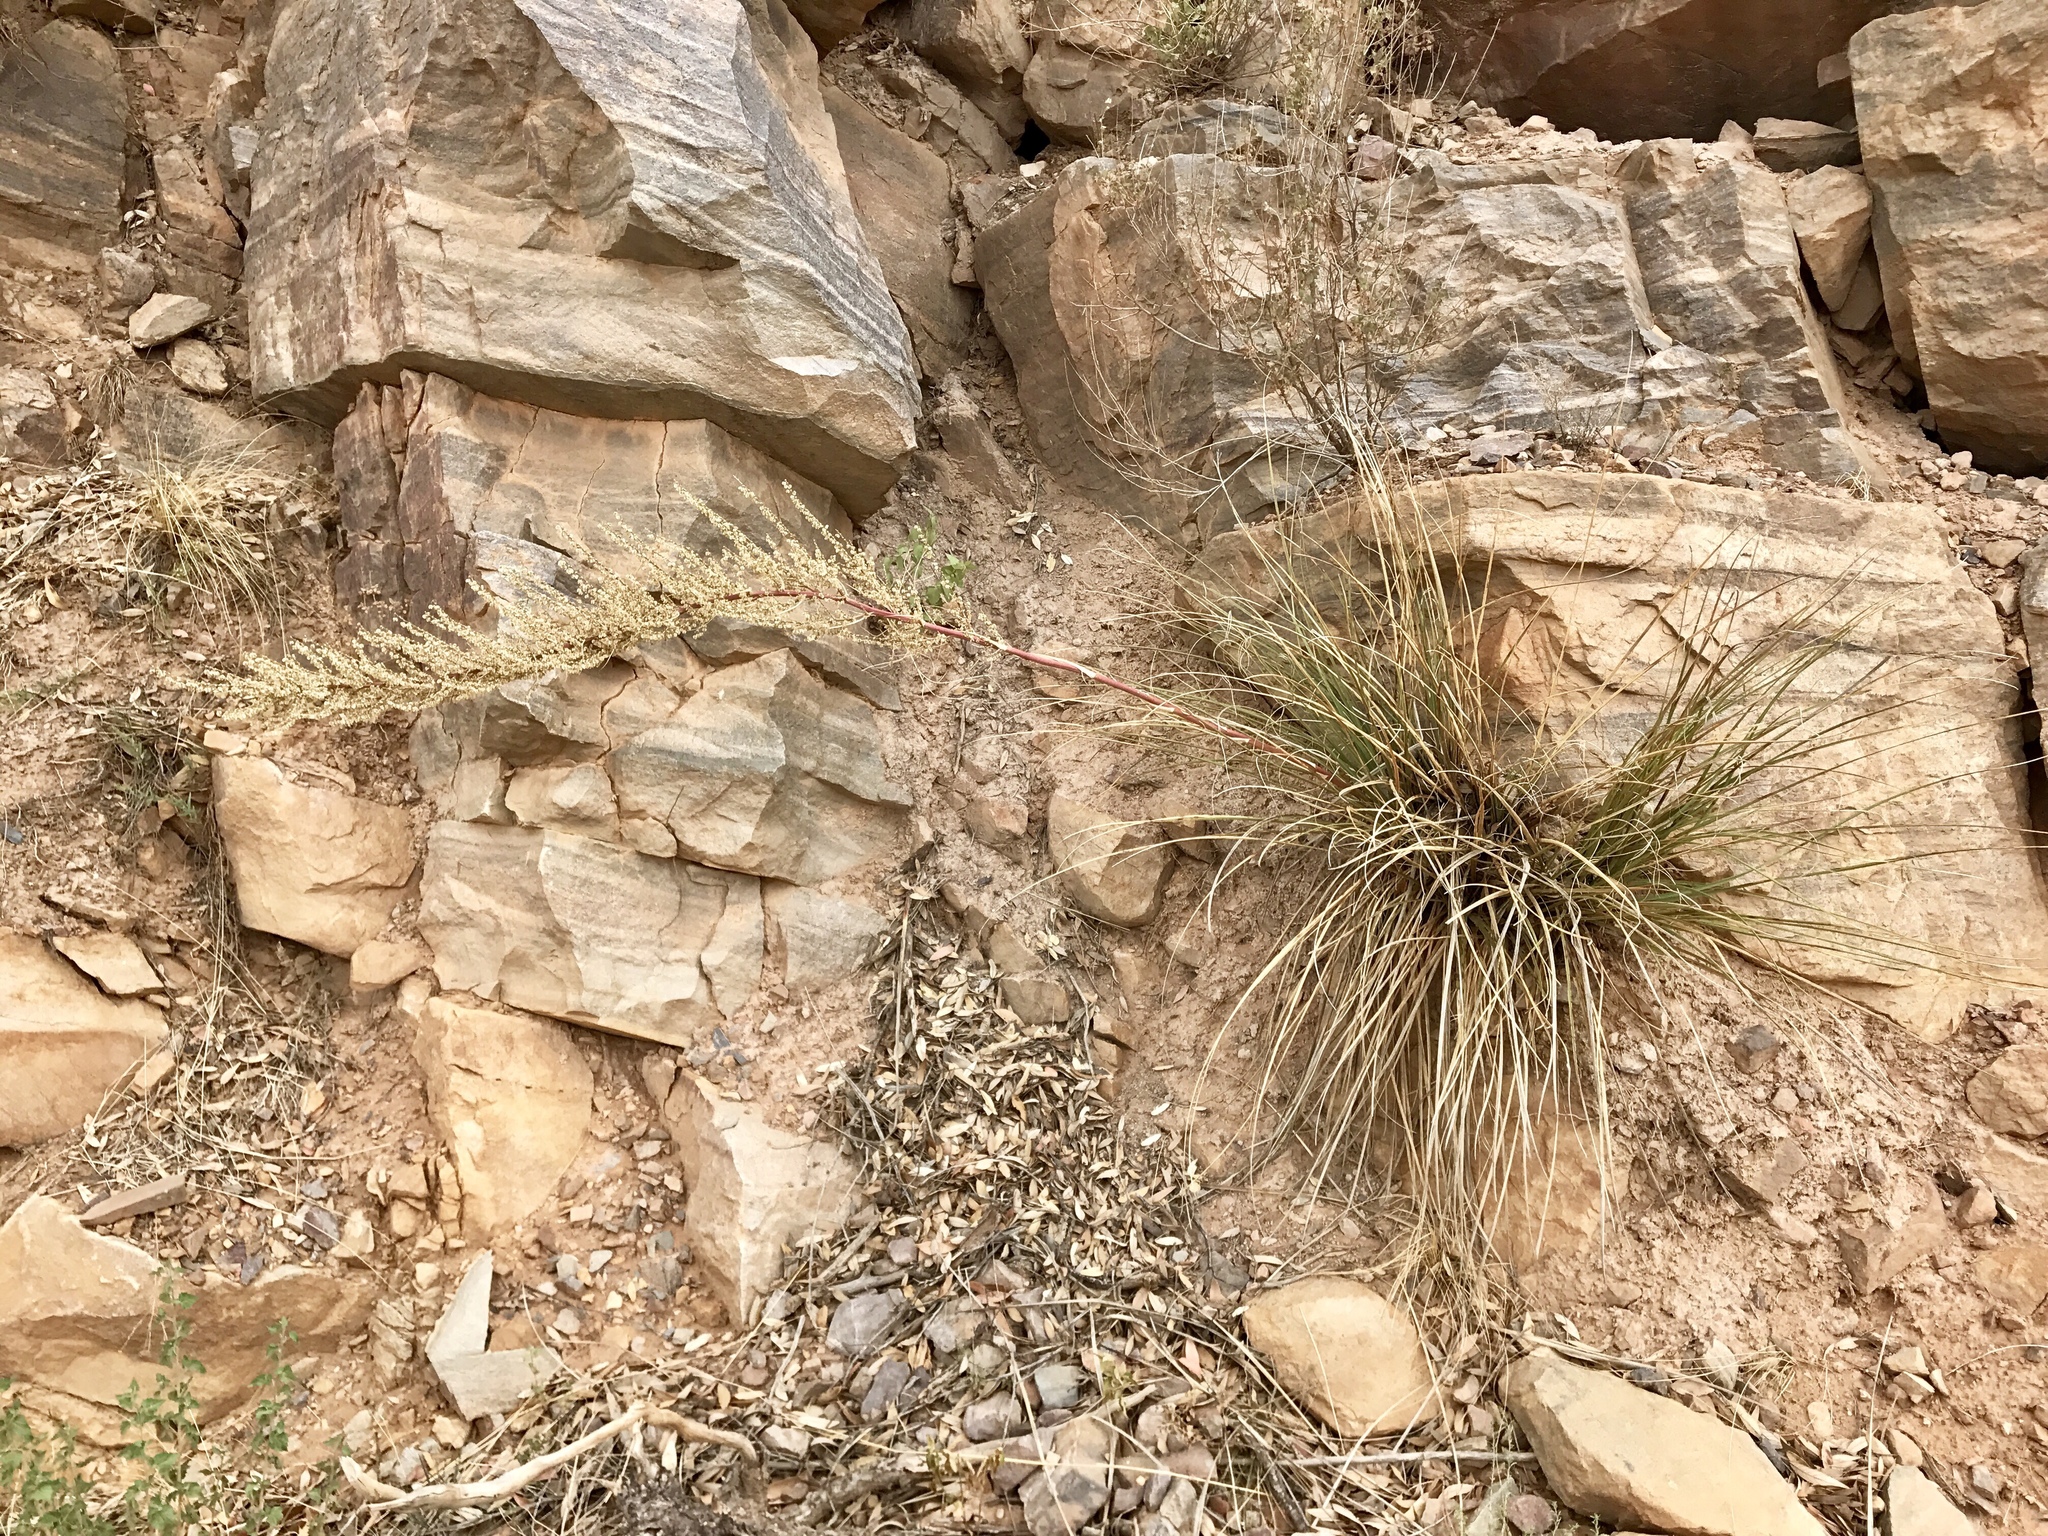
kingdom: Plantae
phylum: Tracheophyta
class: Liliopsida
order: Asparagales
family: Asparagaceae
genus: Nolina
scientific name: Nolina microcarpa
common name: Bear-grass
